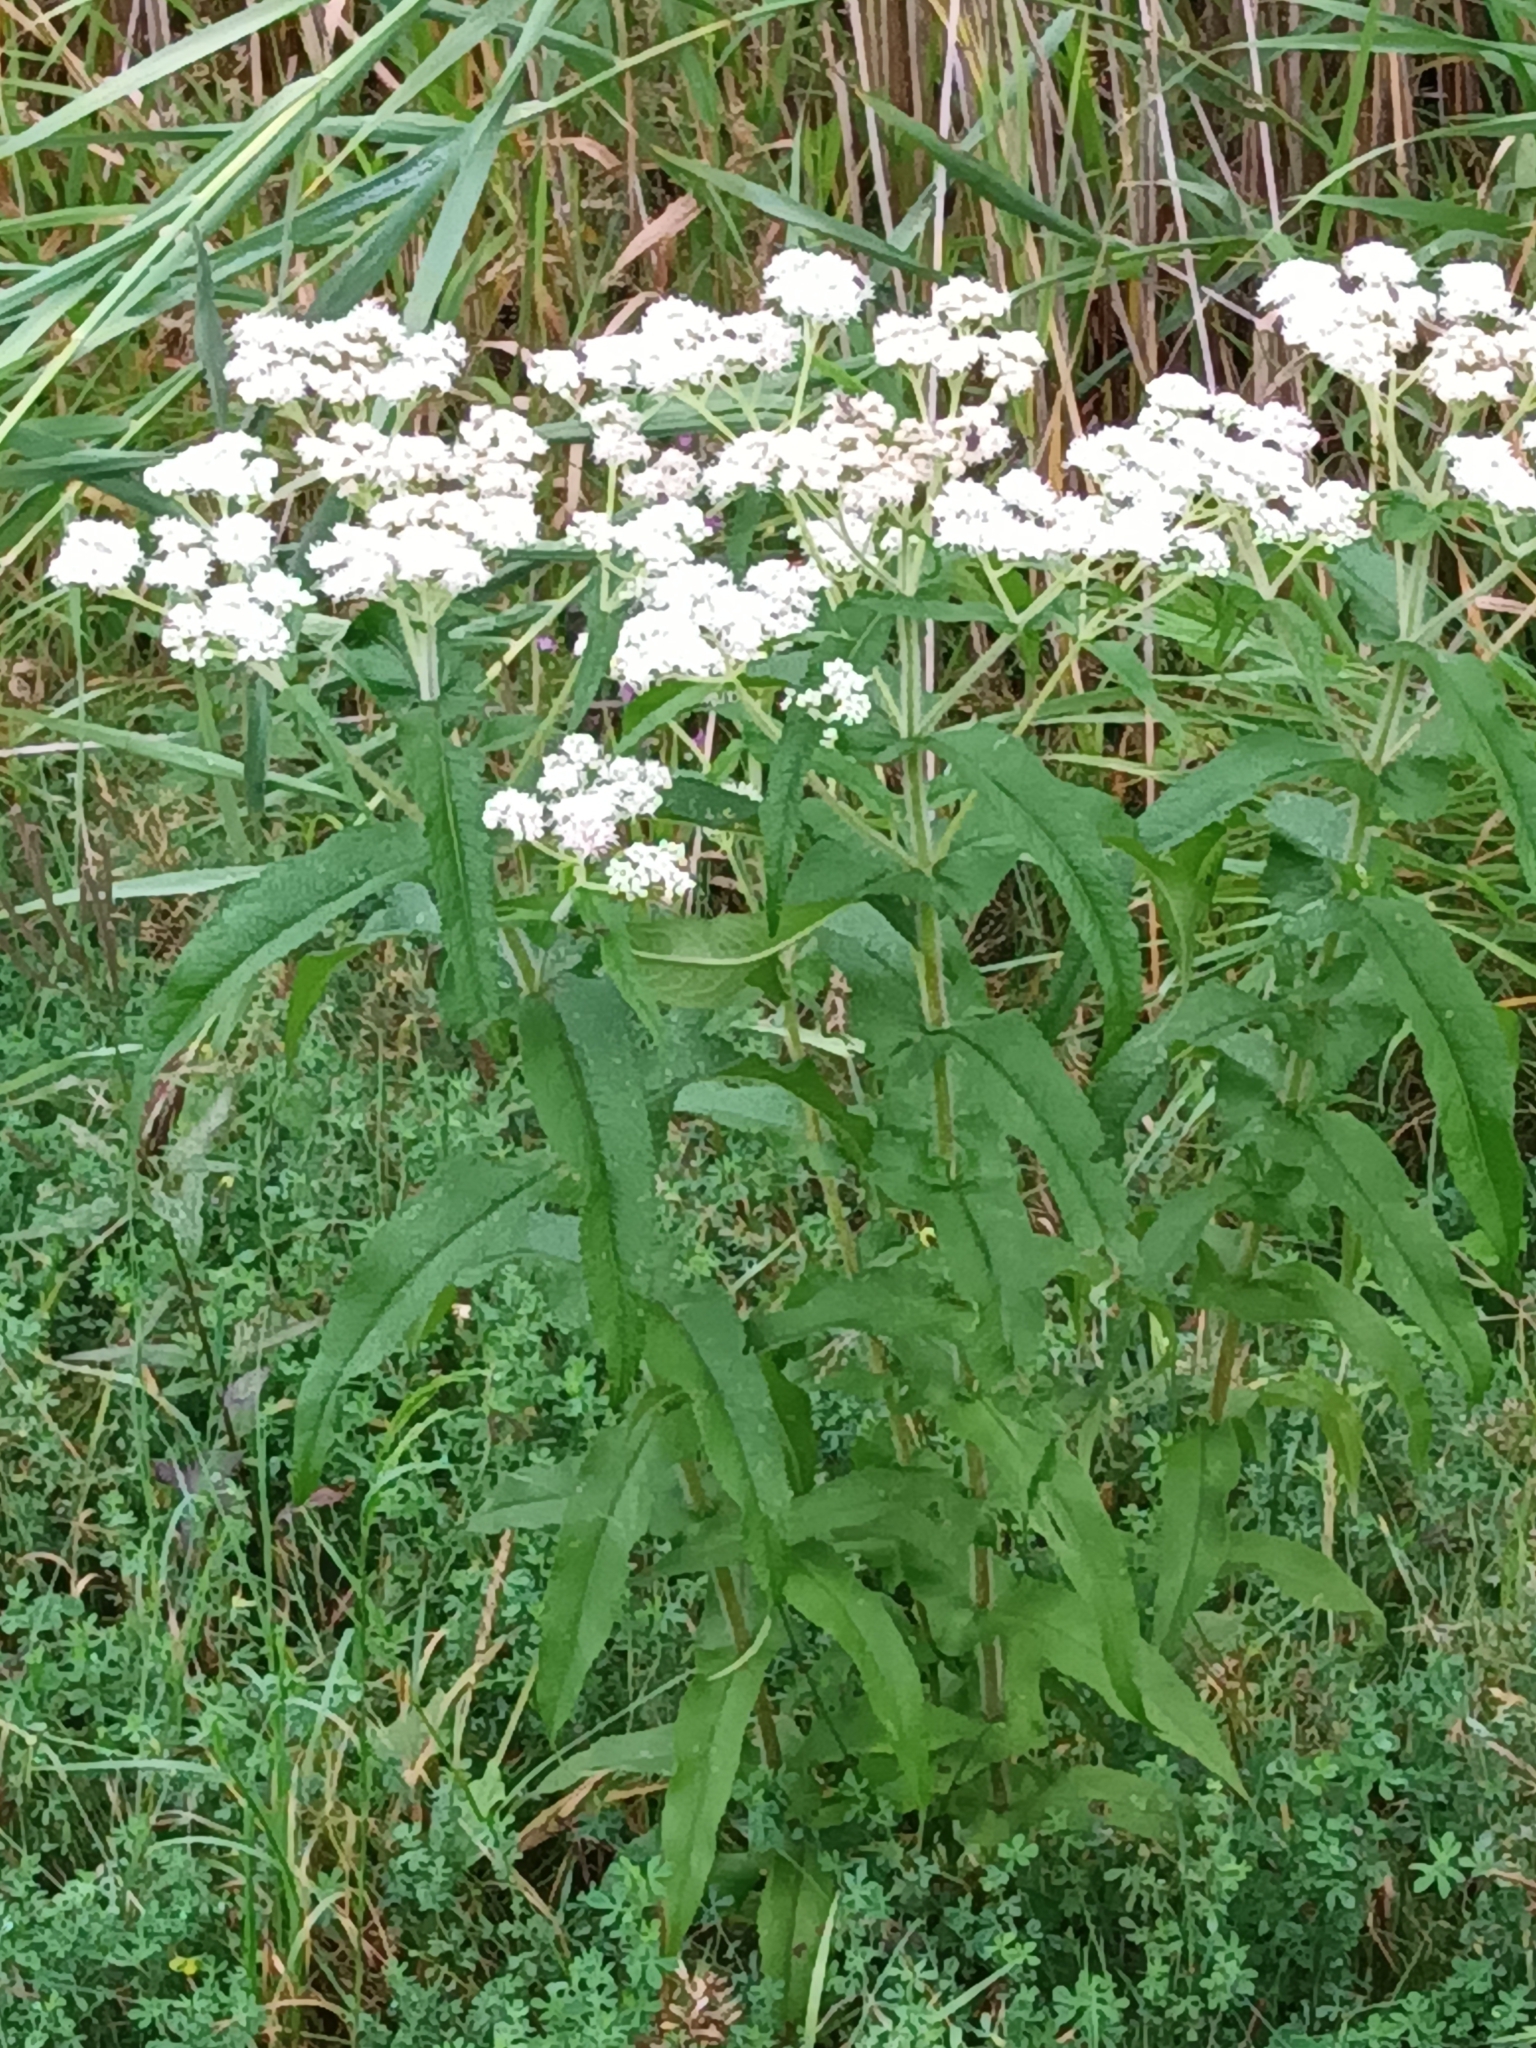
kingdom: Plantae
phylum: Tracheophyta
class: Magnoliopsida
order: Asterales
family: Asteraceae
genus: Eupatorium
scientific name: Eupatorium perfoliatum
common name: Boneset
